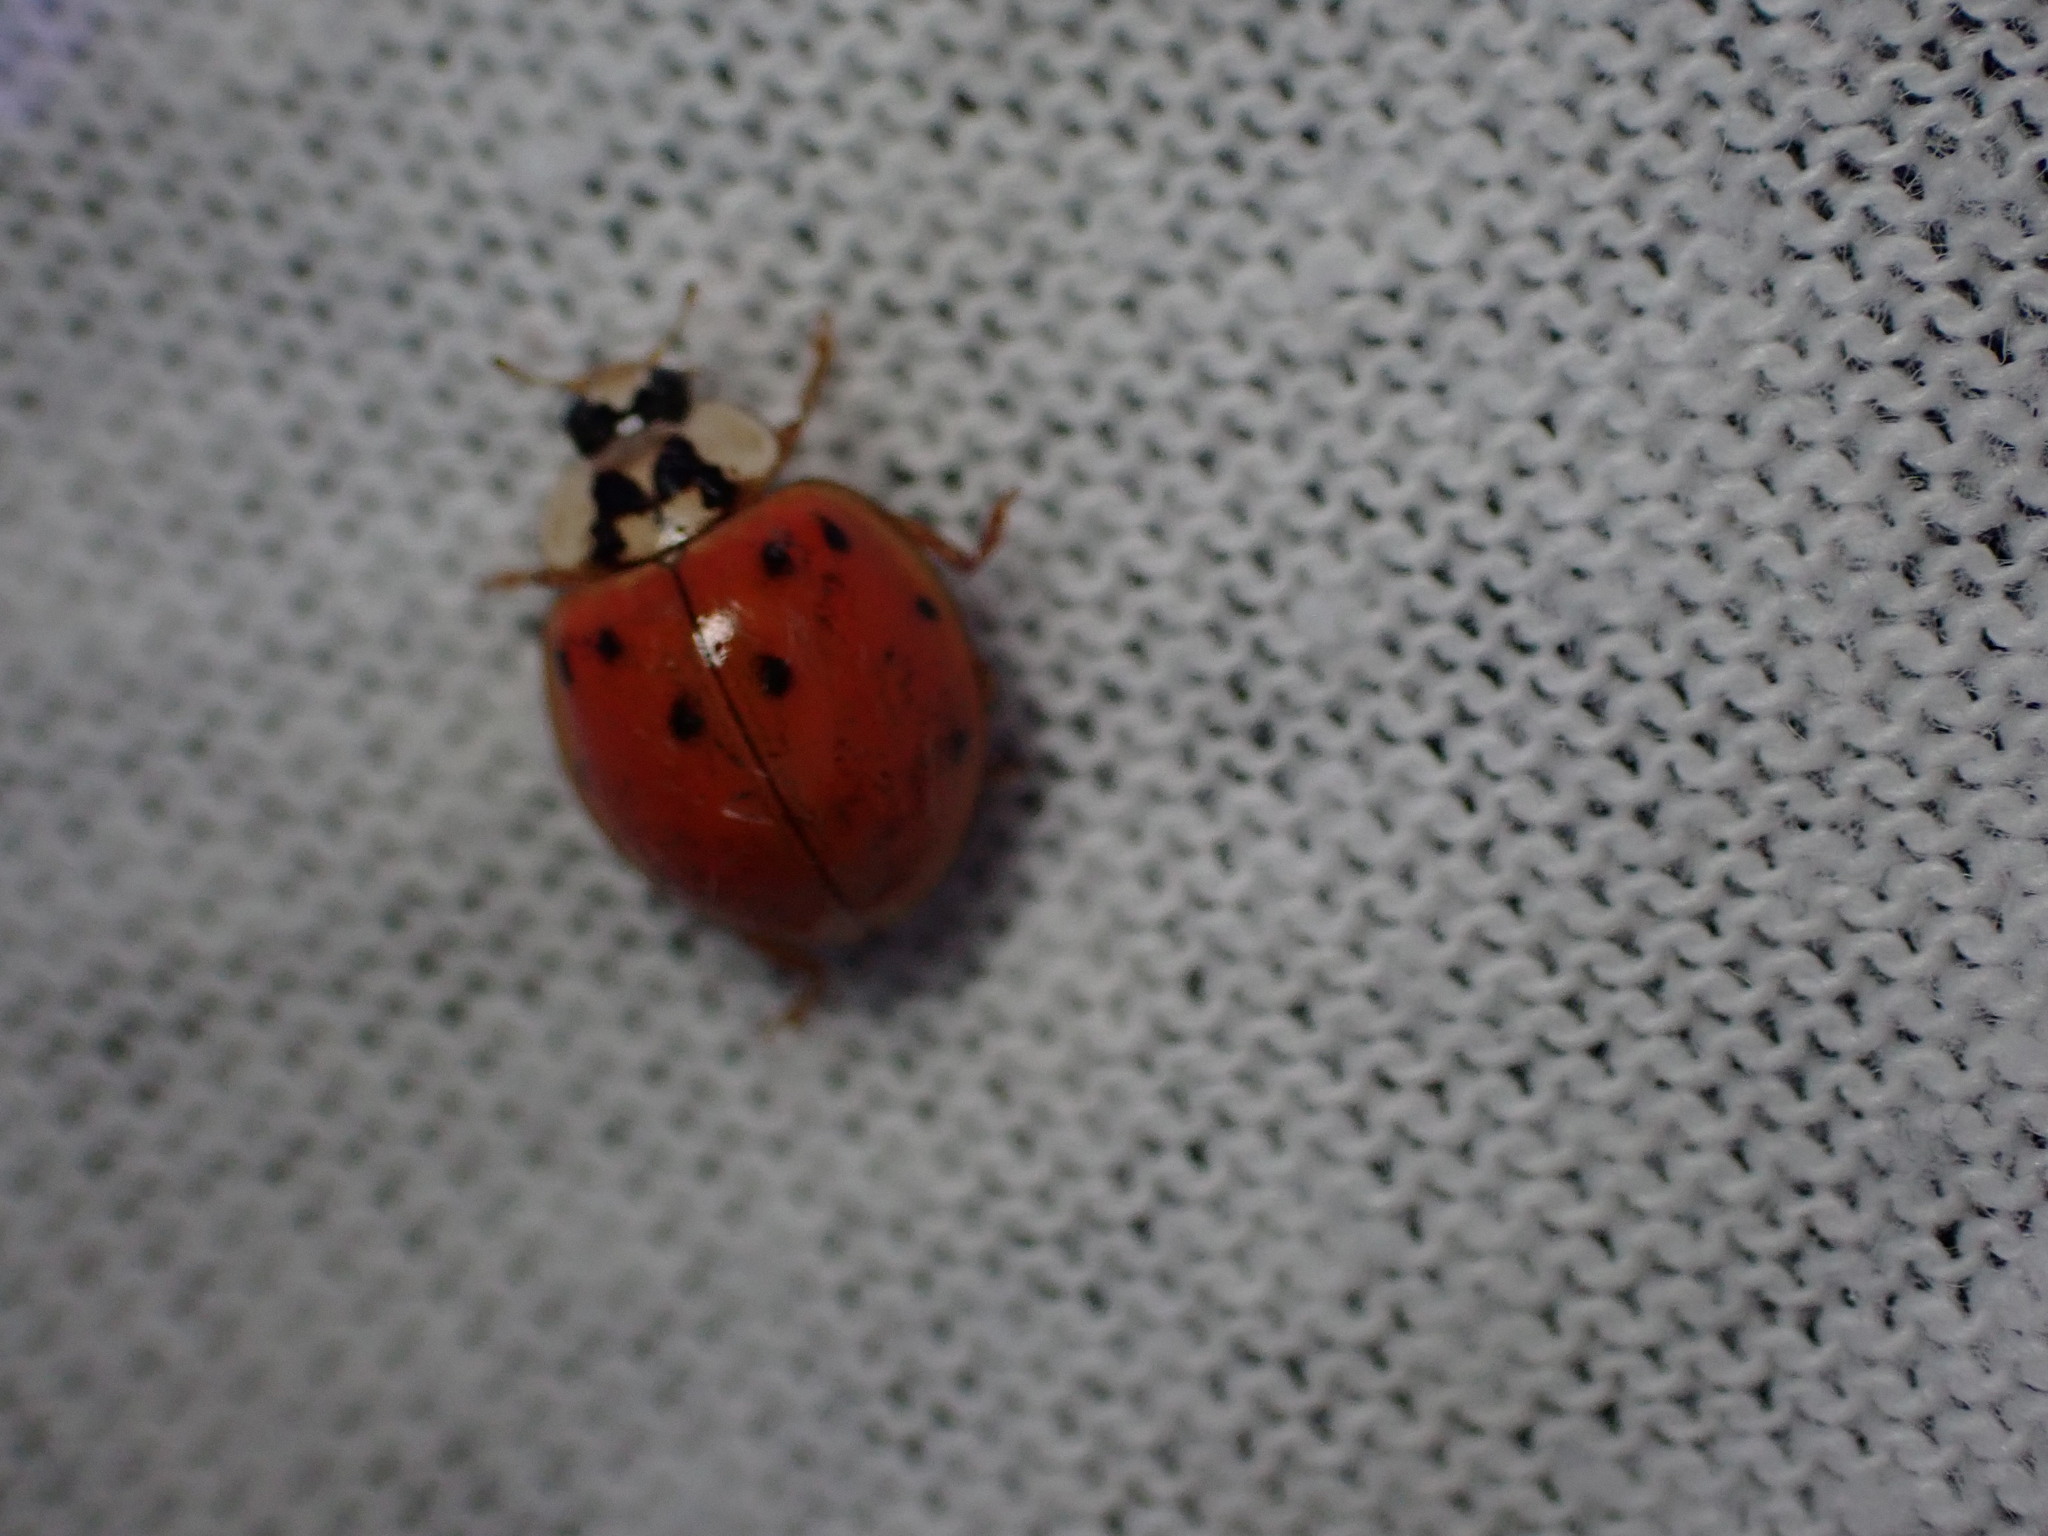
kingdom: Animalia
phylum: Arthropoda
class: Insecta
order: Coleoptera
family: Coccinellidae
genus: Harmonia
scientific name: Harmonia axyridis
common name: Harlequin ladybird
